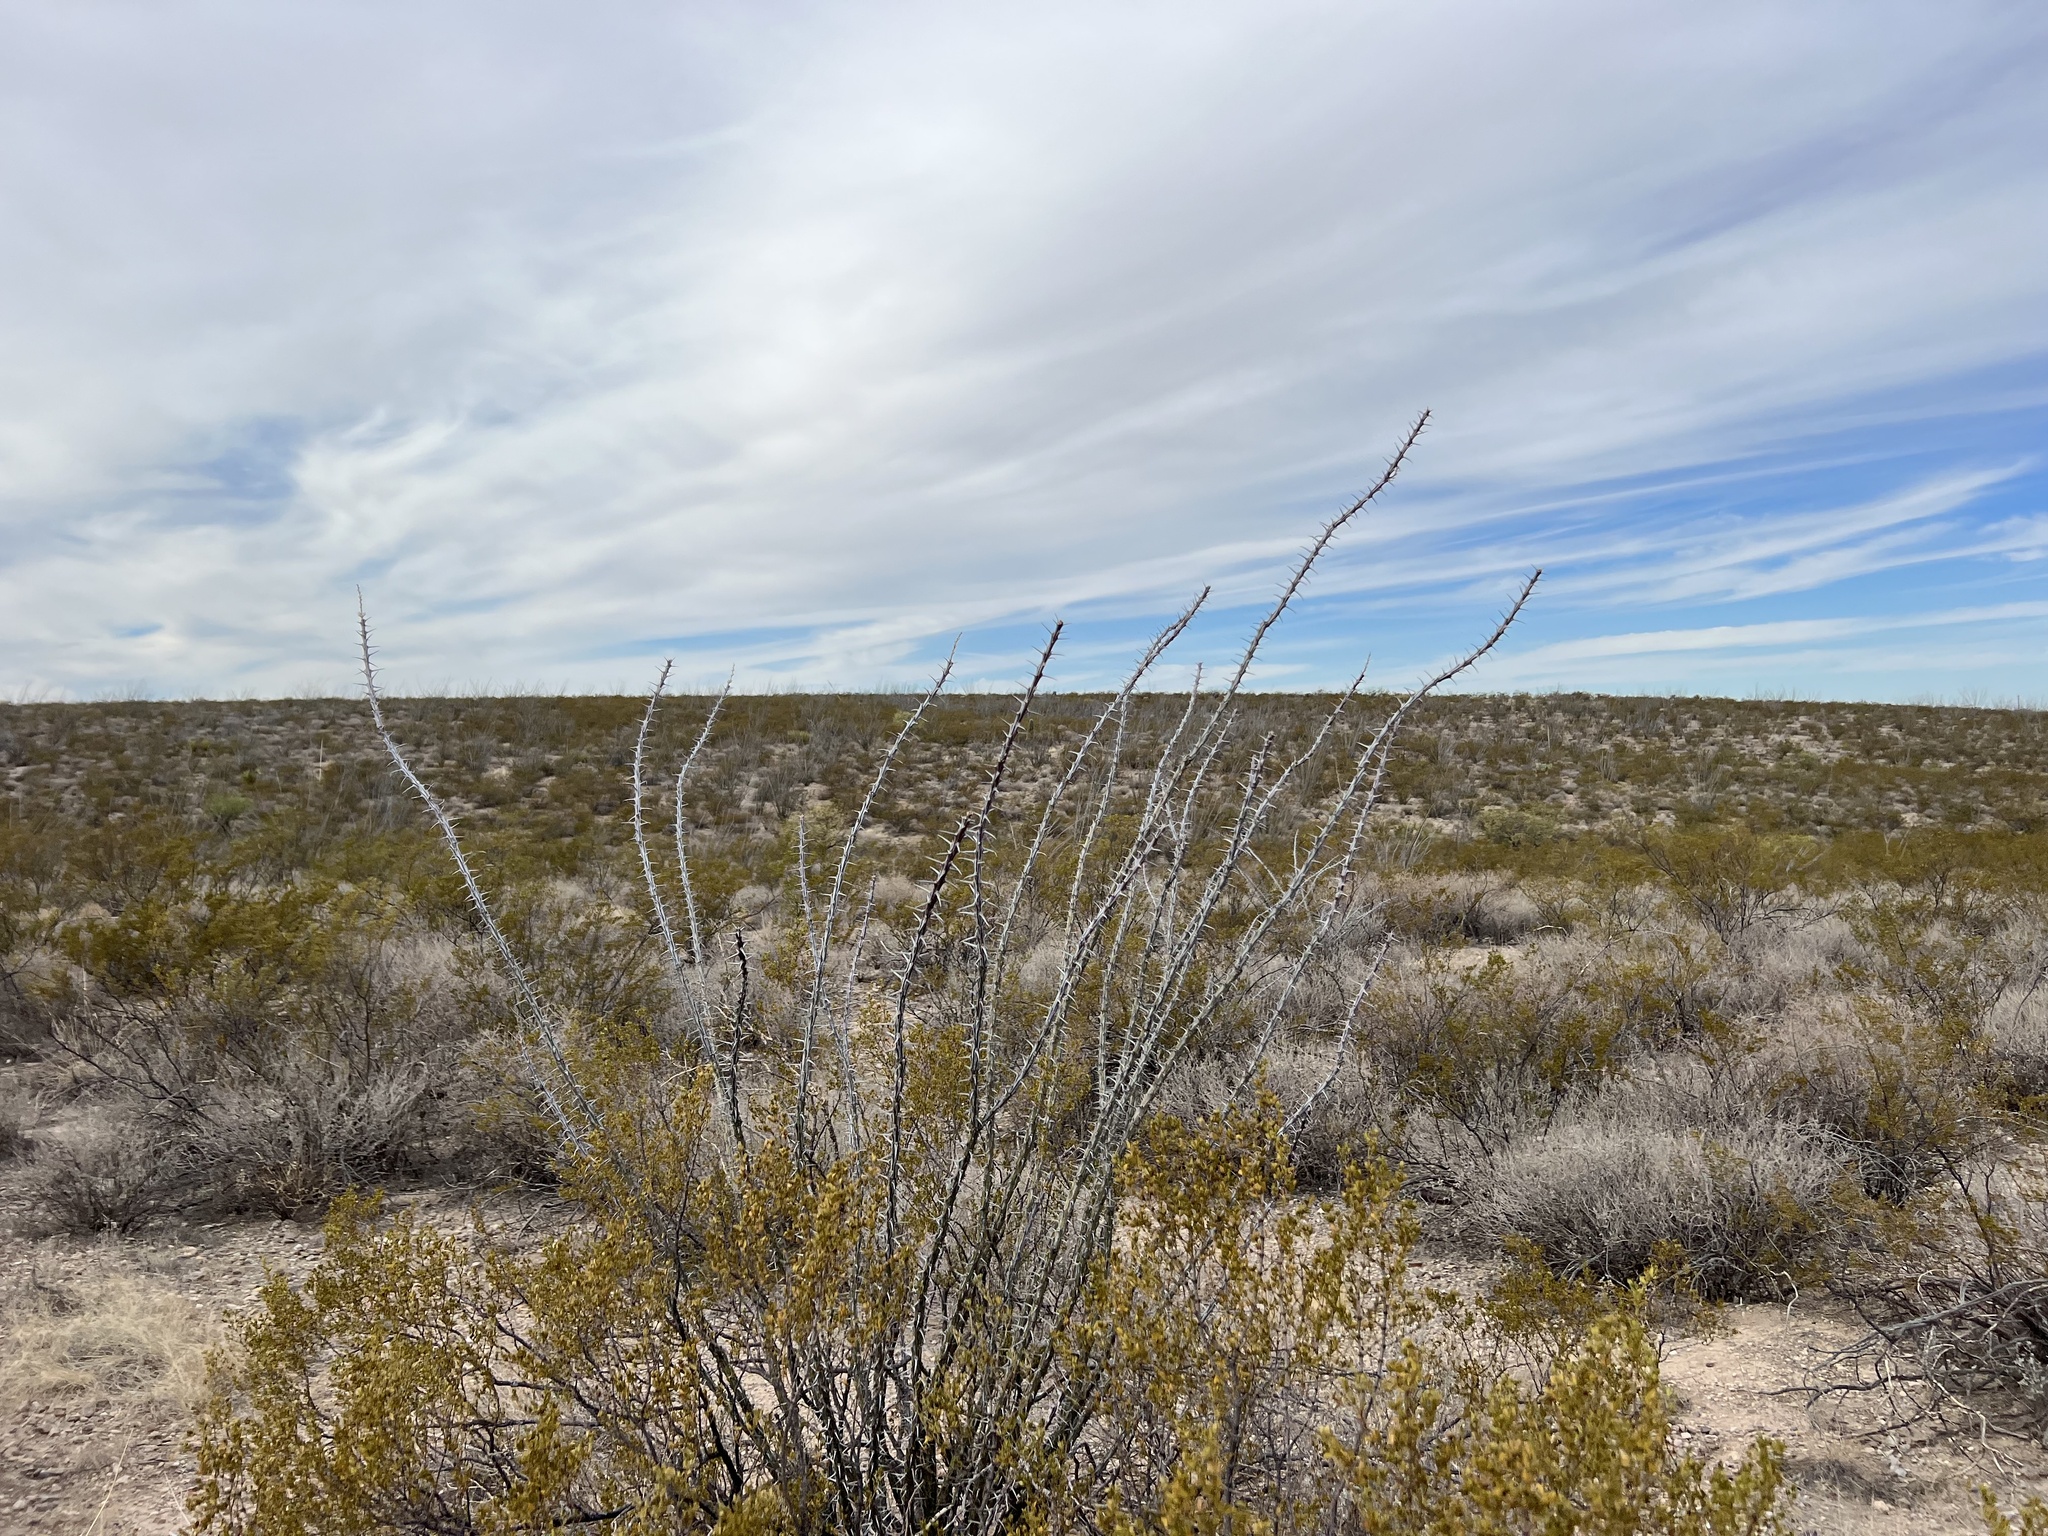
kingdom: Plantae
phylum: Tracheophyta
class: Magnoliopsida
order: Ericales
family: Fouquieriaceae
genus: Fouquieria
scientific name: Fouquieria splendens
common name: Vine-cactus
